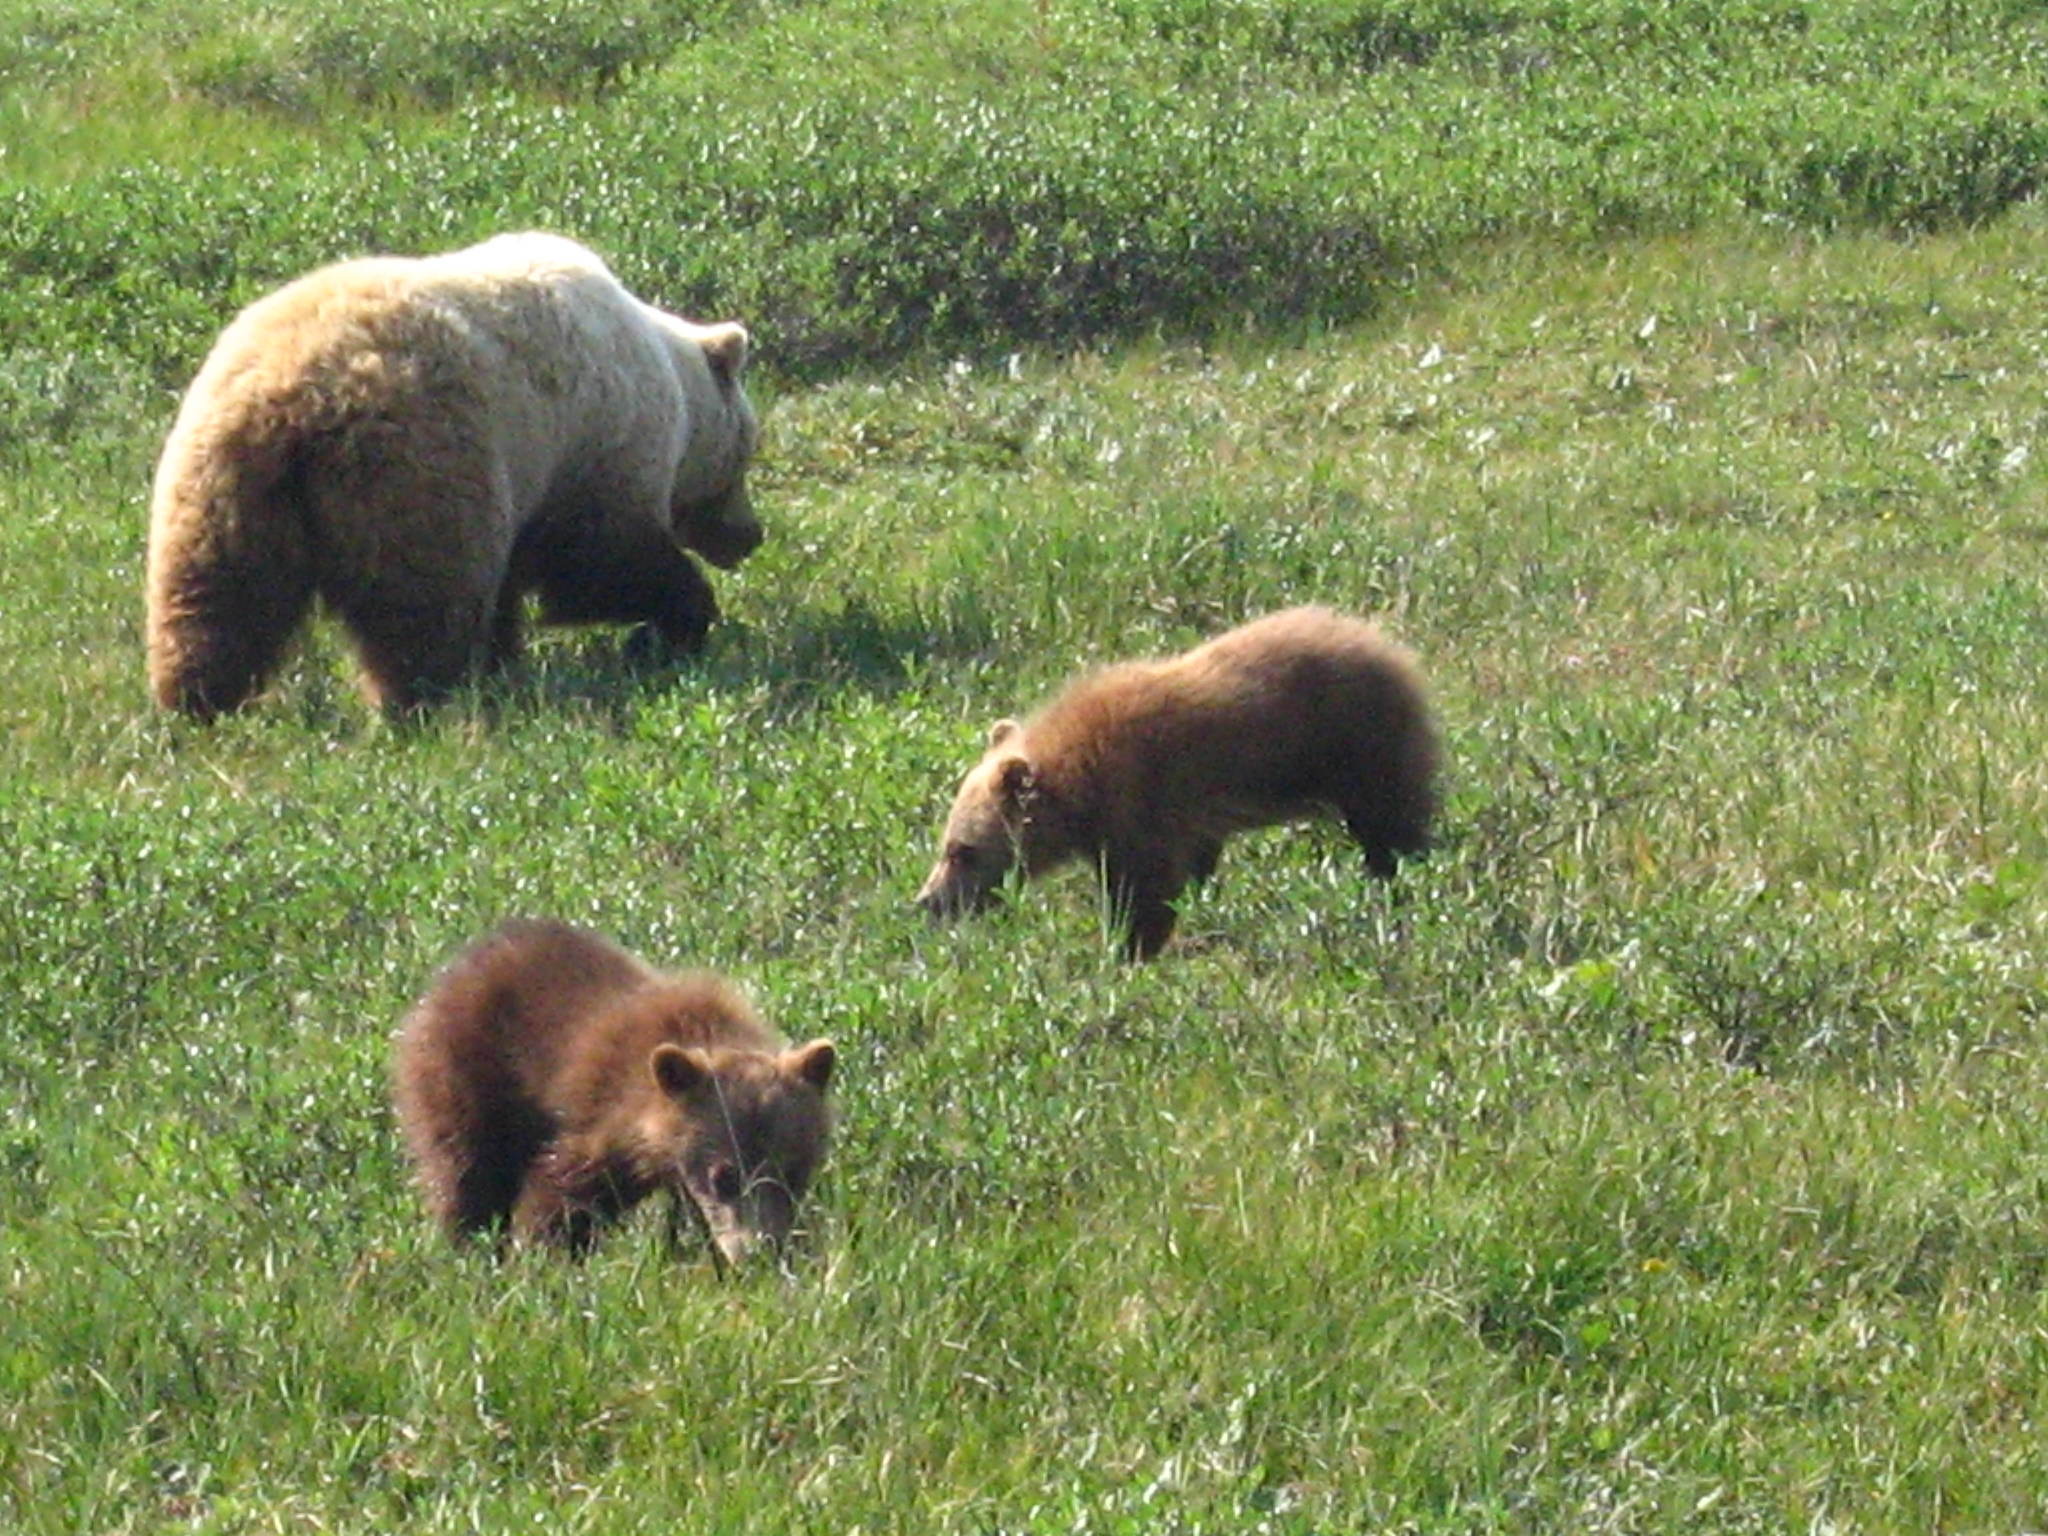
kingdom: Animalia
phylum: Chordata
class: Mammalia
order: Carnivora
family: Ursidae
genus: Ursus
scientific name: Ursus arctos
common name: Brown bear
